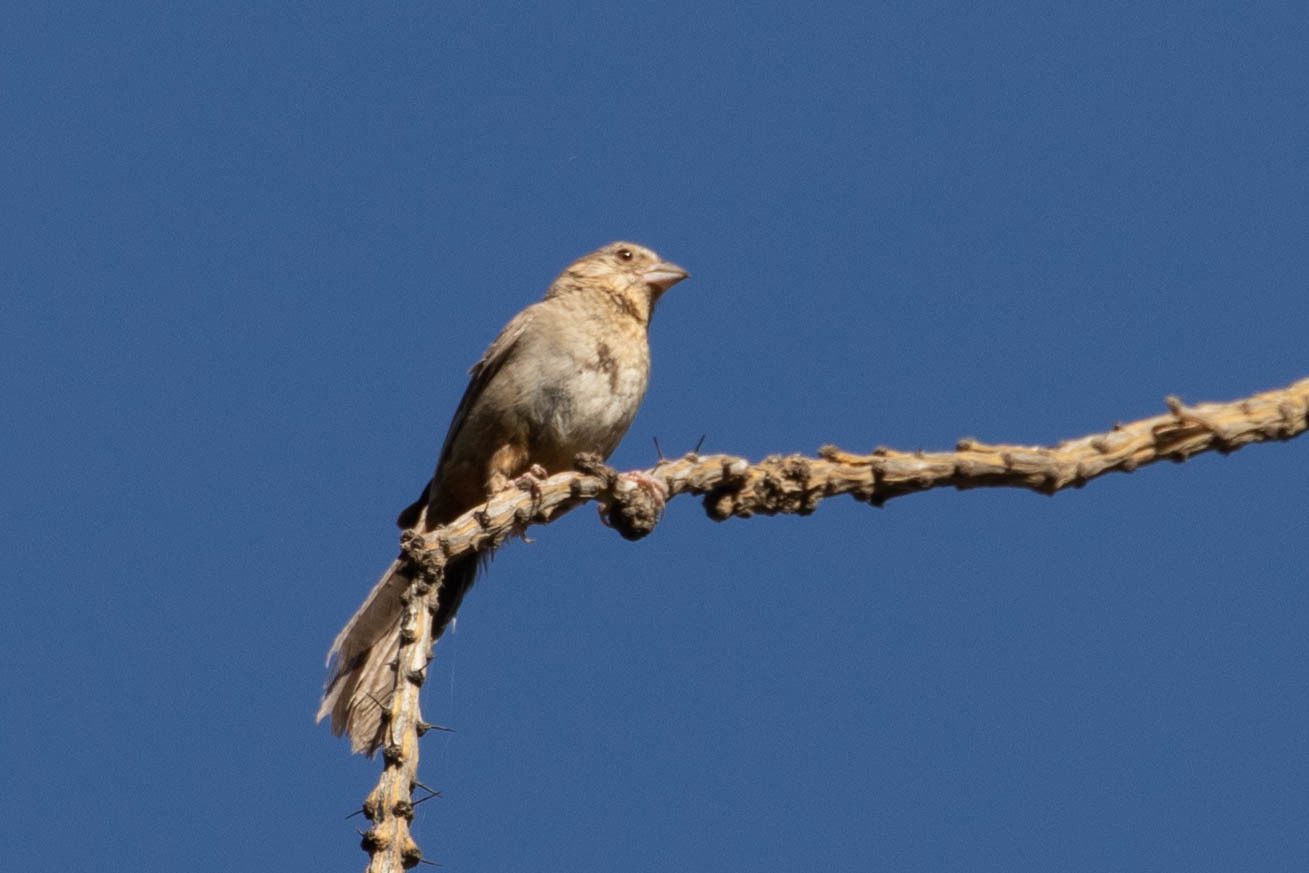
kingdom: Animalia
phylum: Chordata
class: Aves
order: Passeriformes
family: Passerellidae
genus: Melozone
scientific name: Melozone fusca
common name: Canyon towhee
